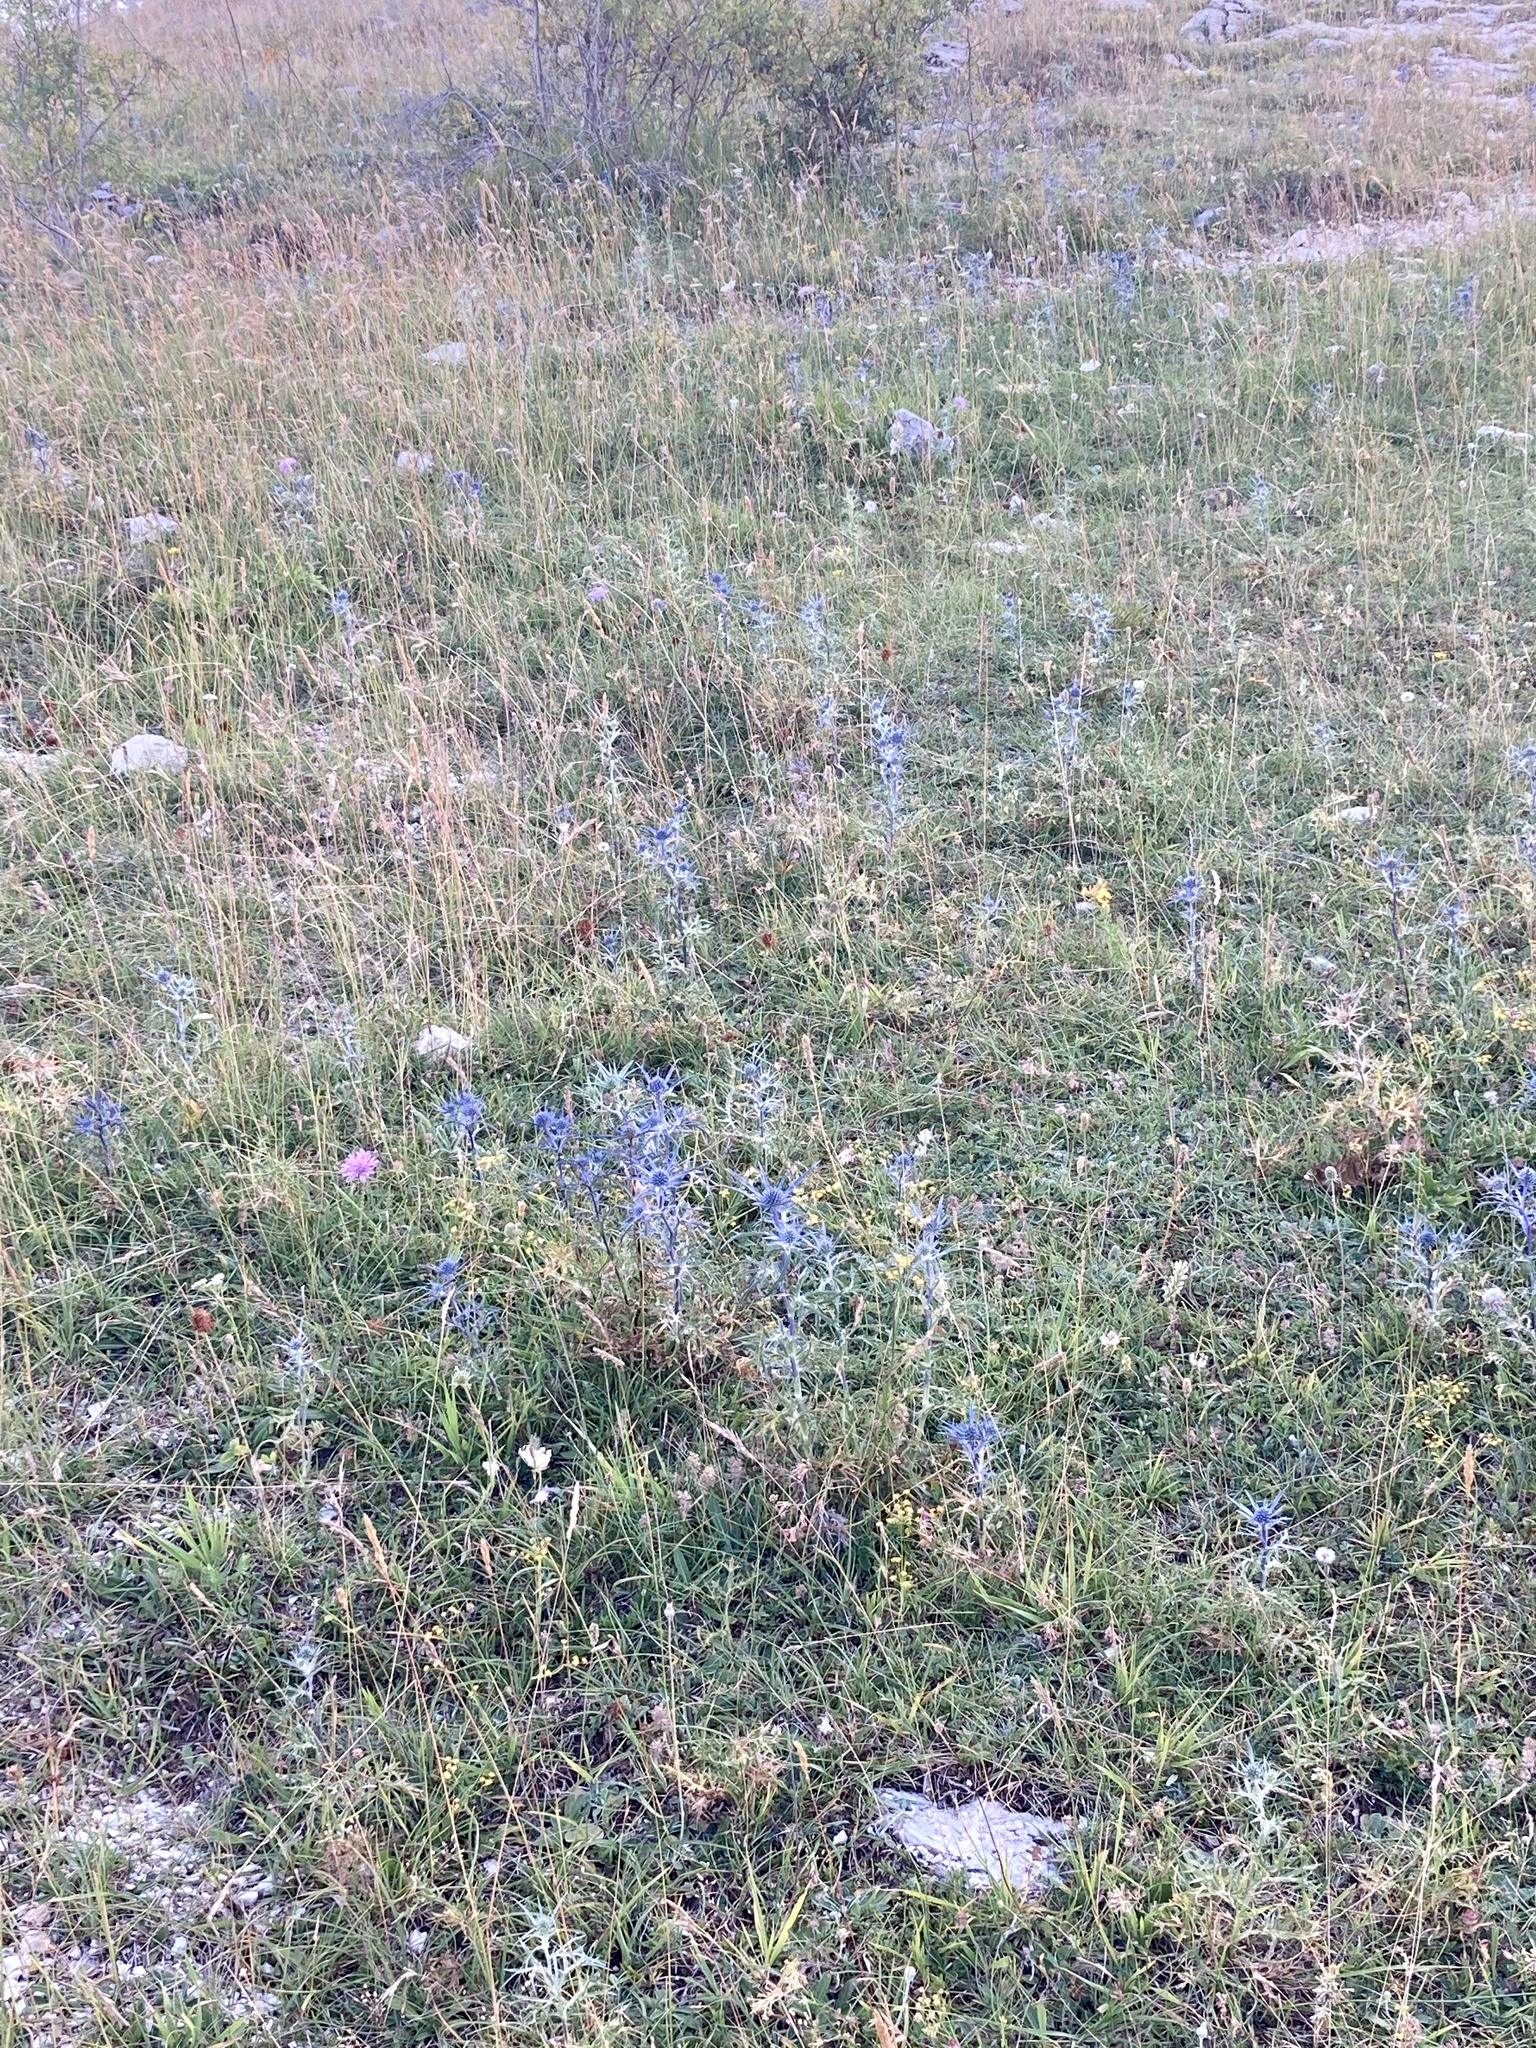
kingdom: Plantae
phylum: Tracheophyta
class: Magnoliopsida
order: Apiales
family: Apiaceae
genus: Eryngium
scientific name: Eryngium amethystinum
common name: Amethyst eryngo
